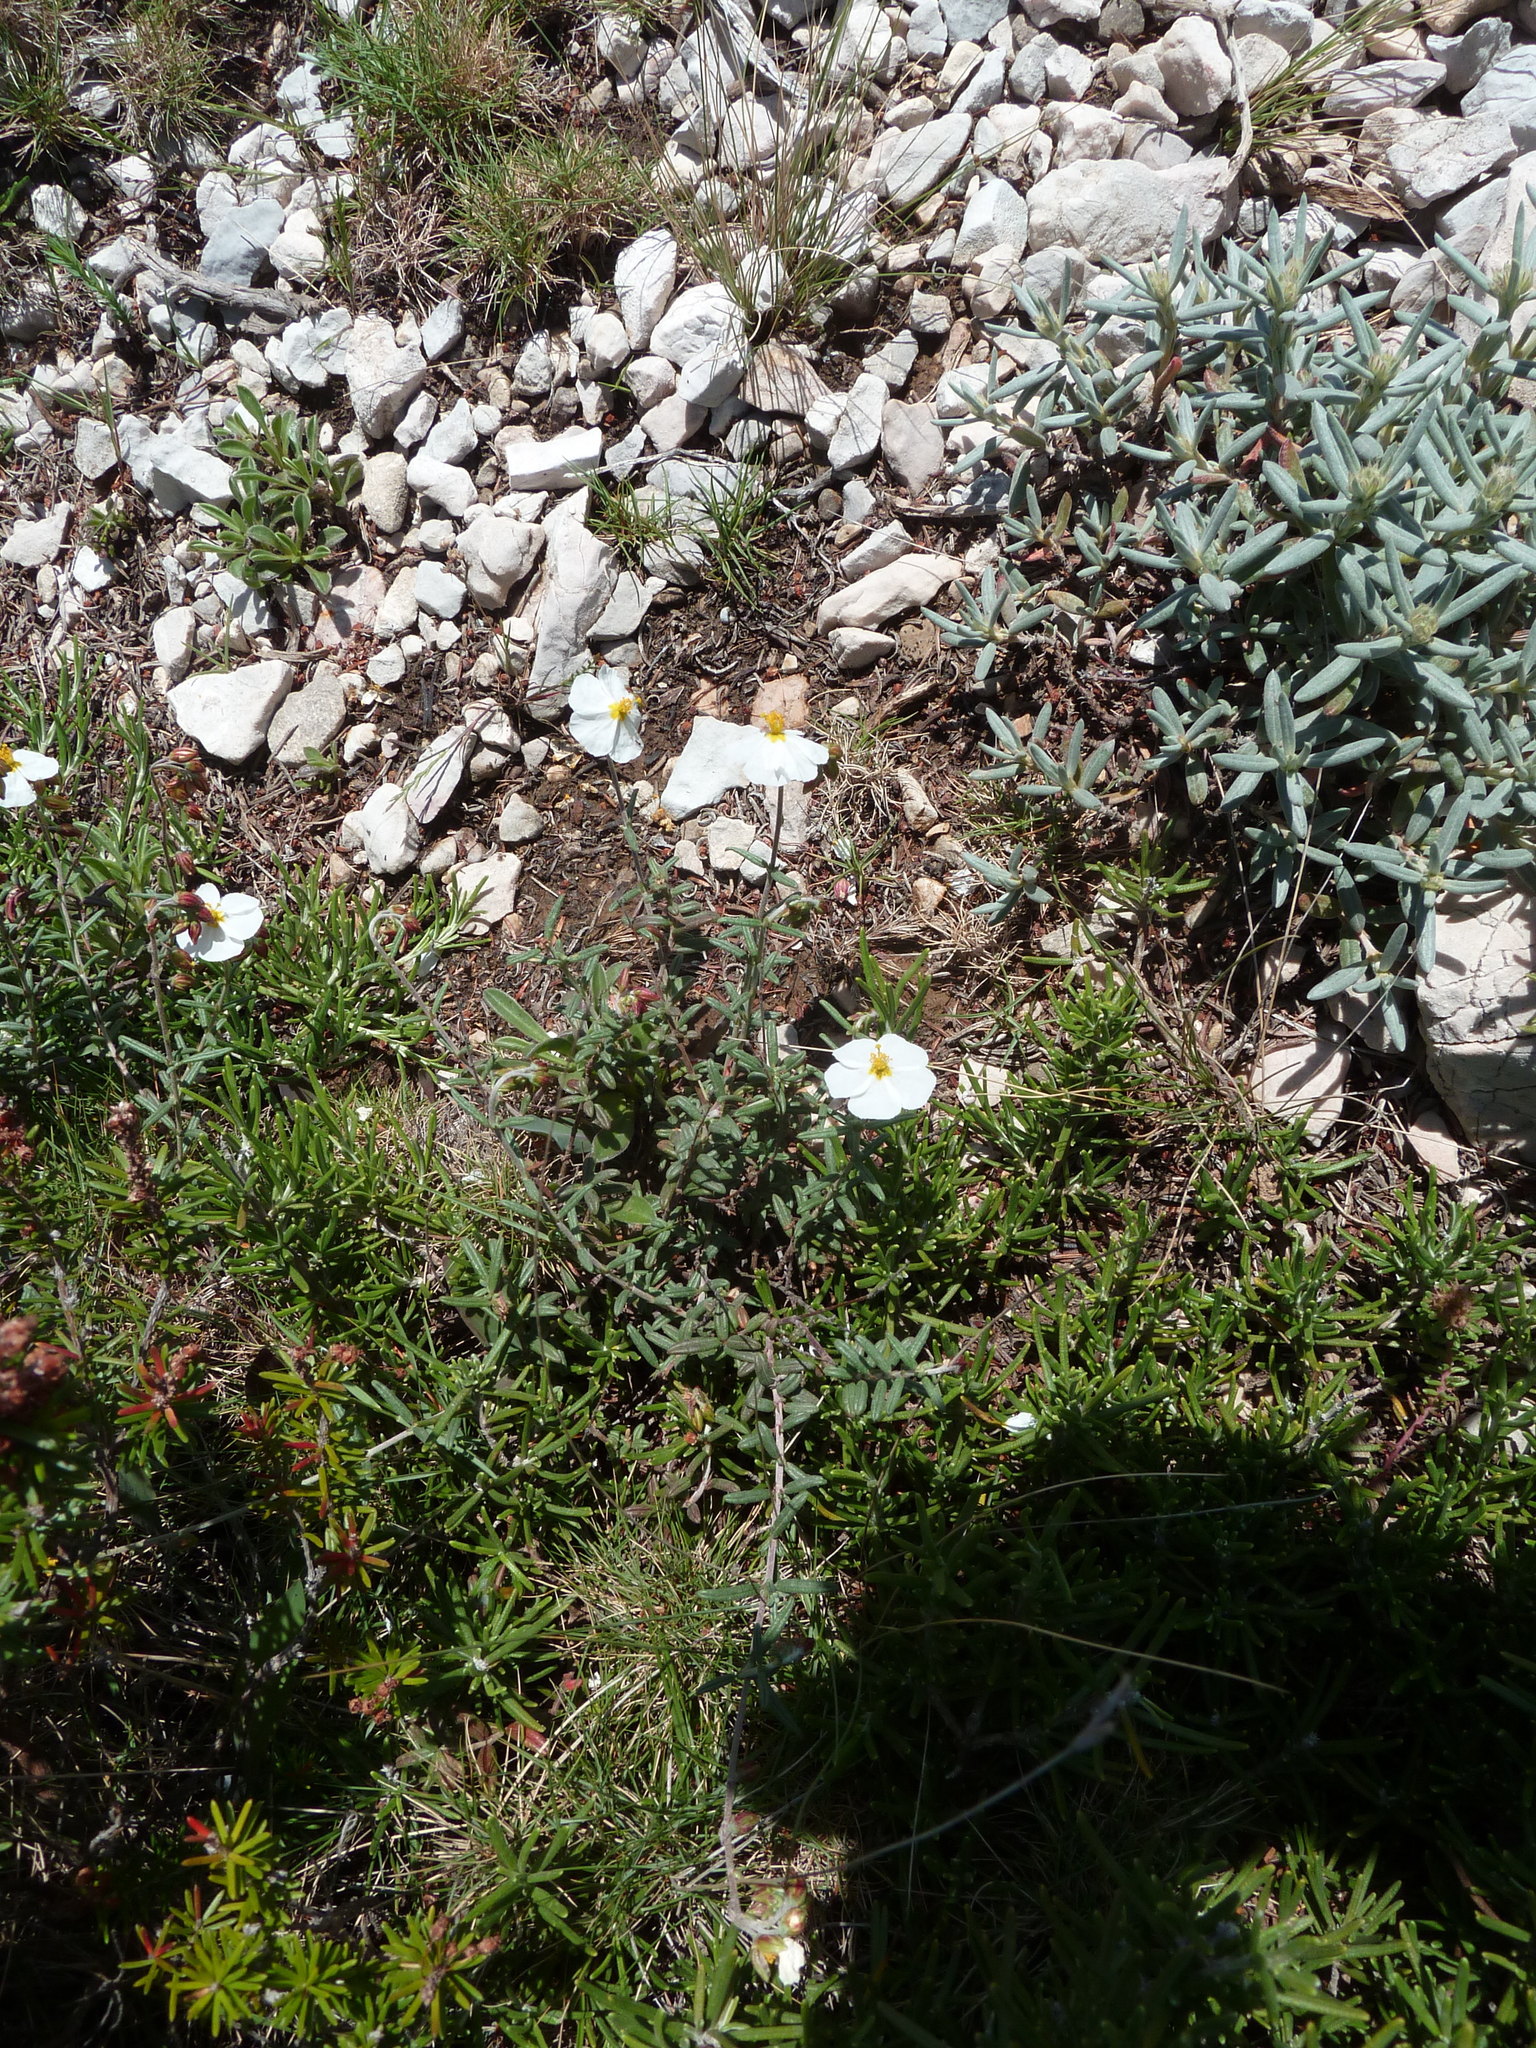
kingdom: Plantae
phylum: Tracheophyta
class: Magnoliopsida
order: Malvales
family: Cistaceae
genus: Helianthemum
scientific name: Helianthemum violaceum
